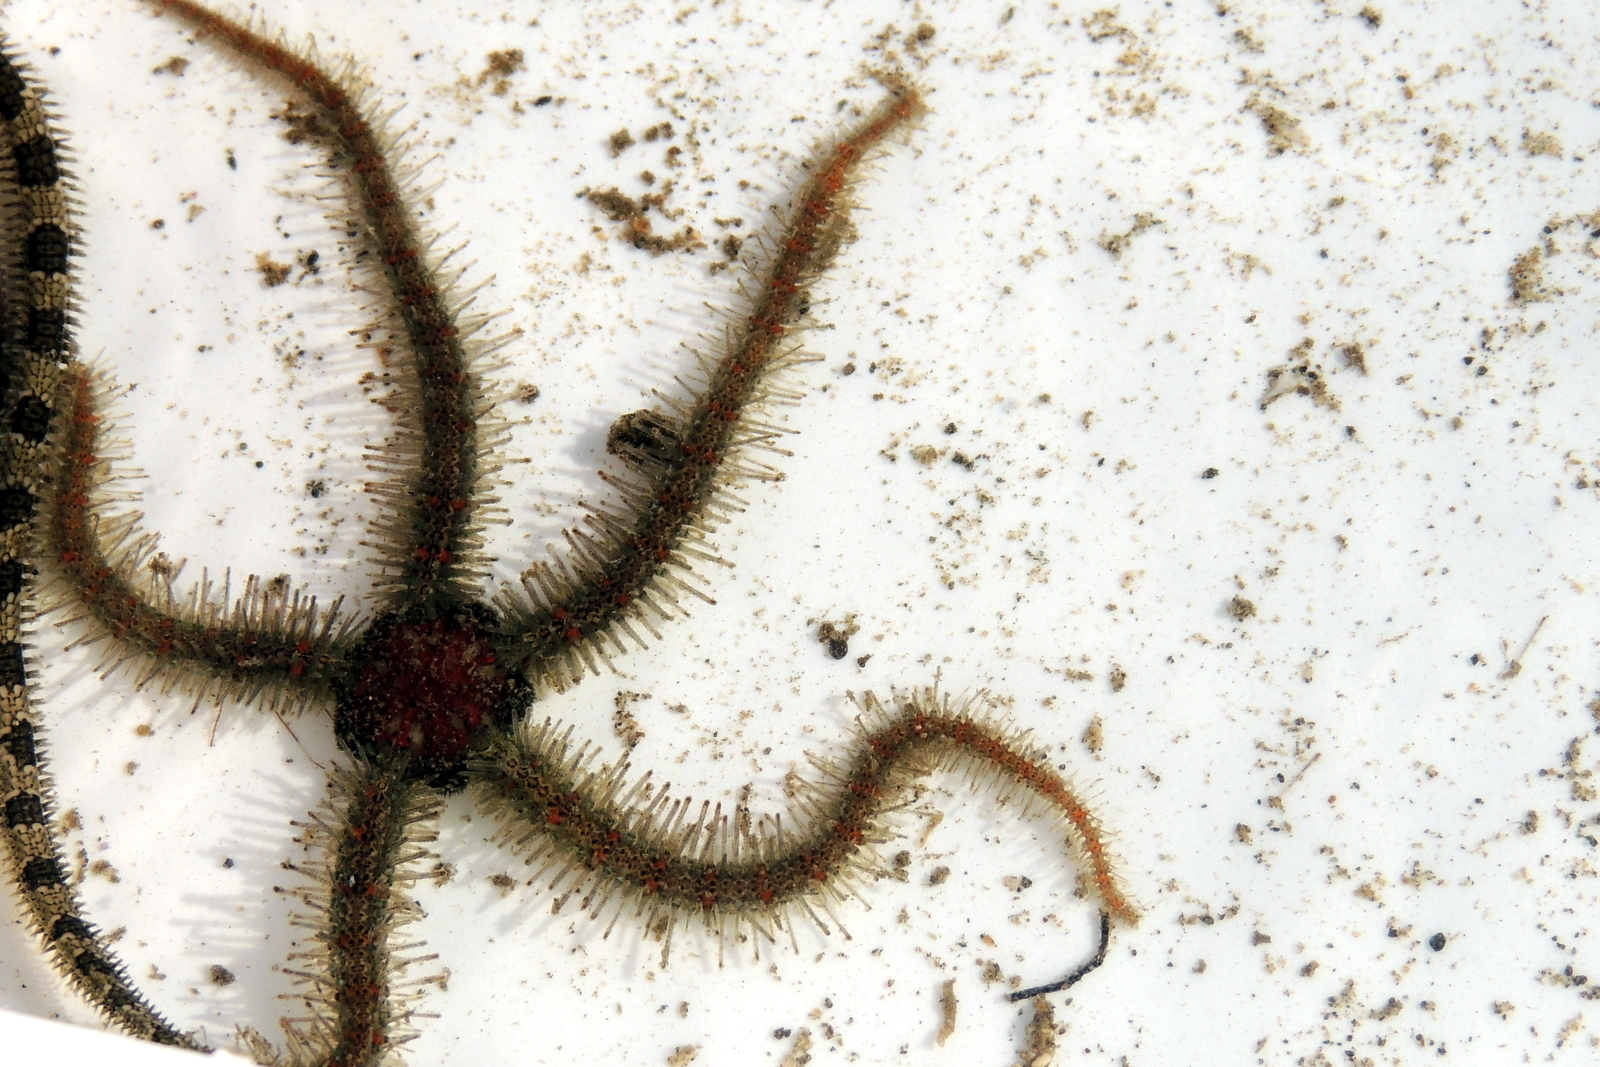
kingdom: Animalia
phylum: Echinodermata
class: Ophiuroidea
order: Amphilepidida
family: Ophiotrichidae
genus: Ophiothrix
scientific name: Ophiothrix spiculata
